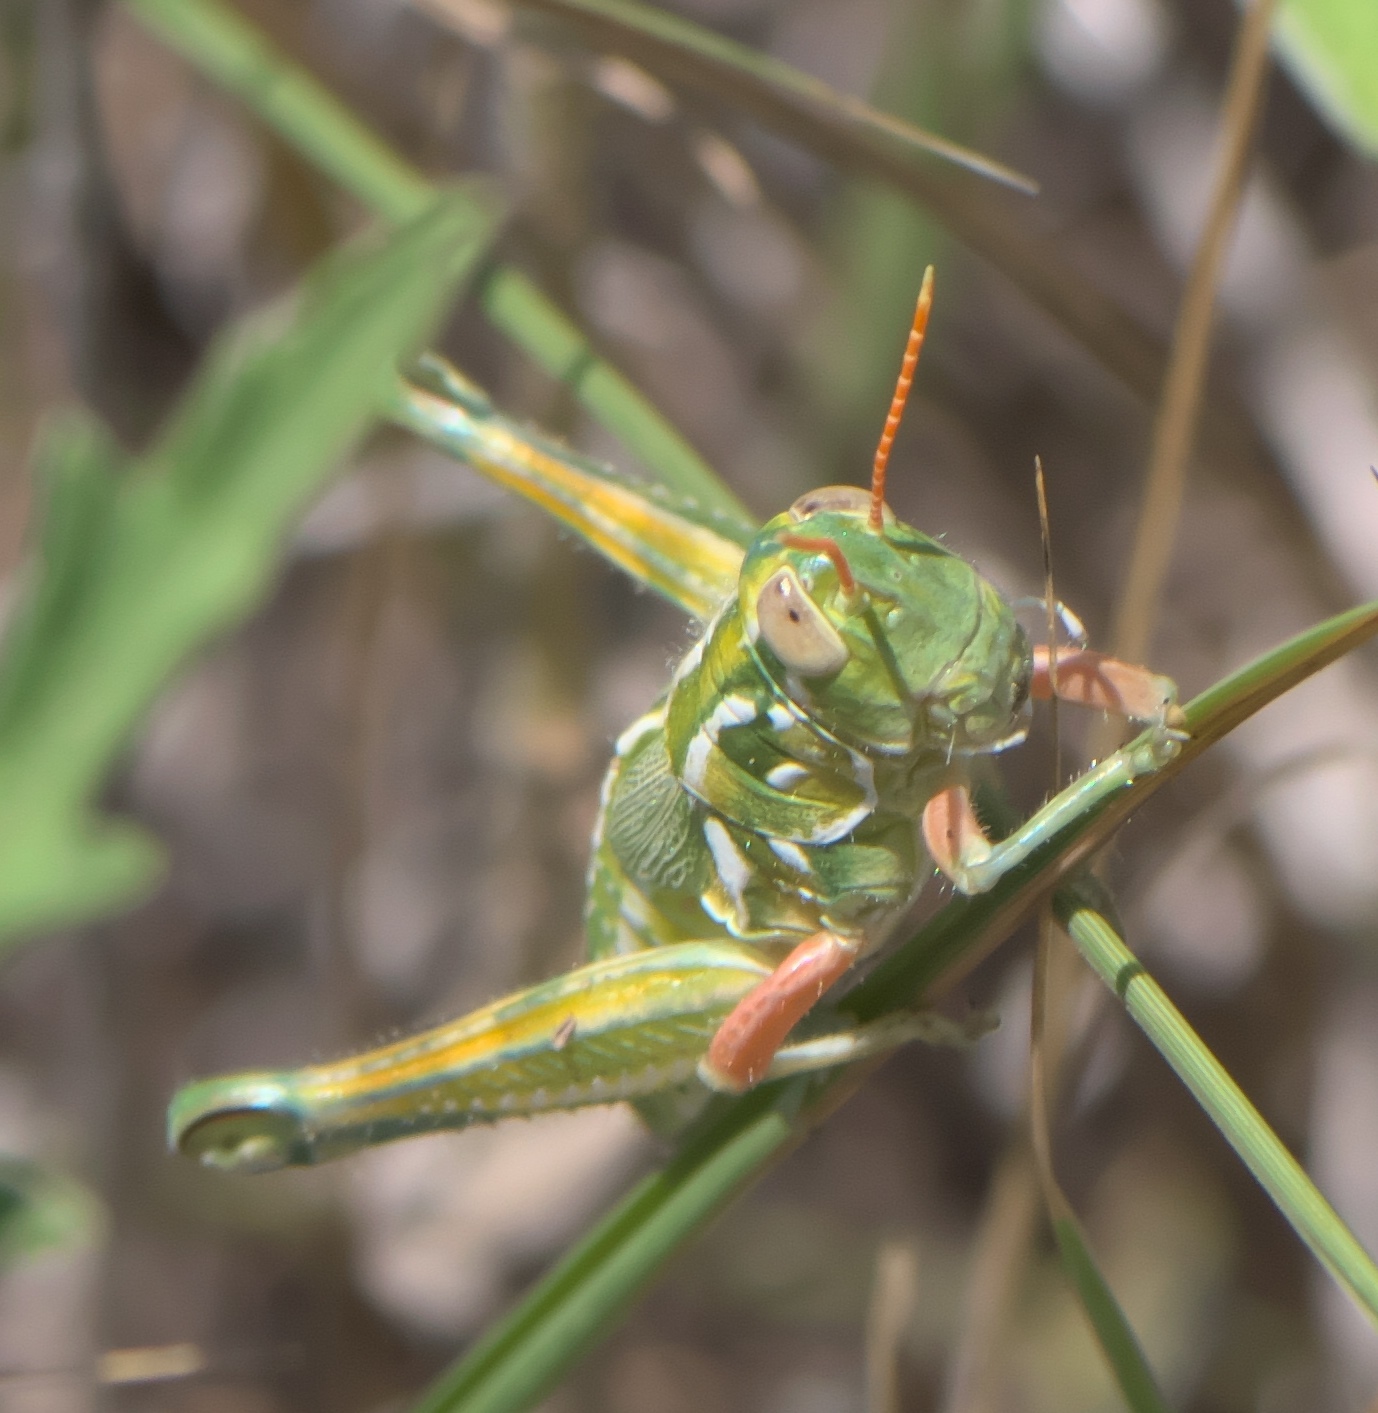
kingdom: Animalia
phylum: Arthropoda
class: Insecta
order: Orthoptera
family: Acrididae
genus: Campylacantha
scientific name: Campylacantha olivacea
